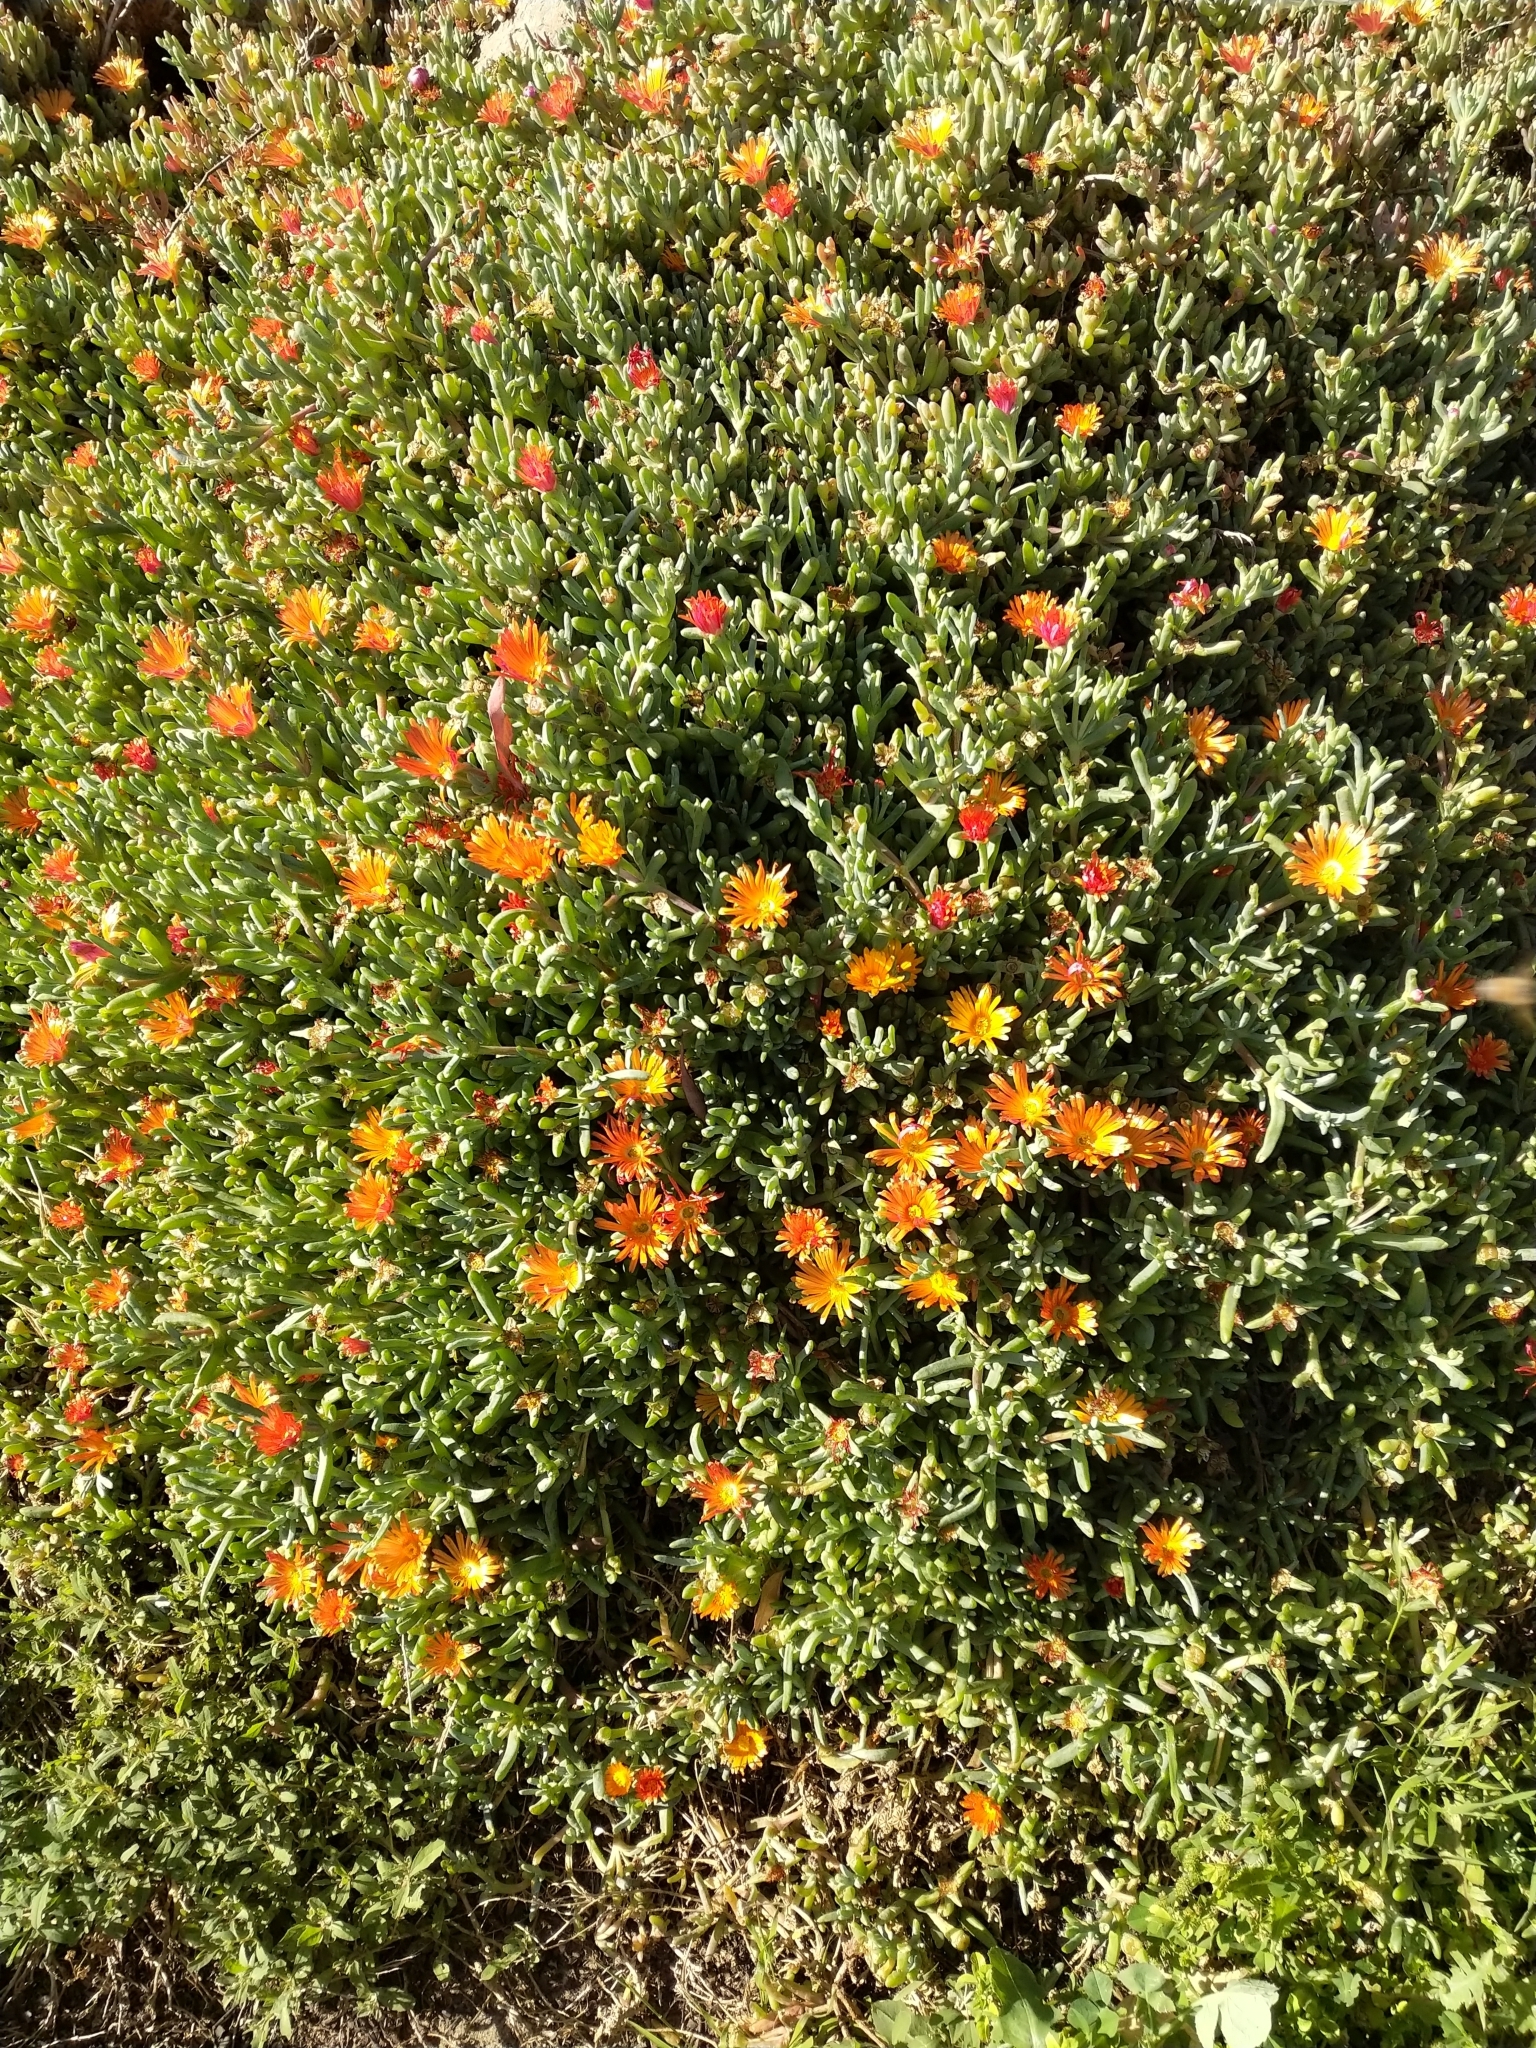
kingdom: Plantae
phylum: Tracheophyta
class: Magnoliopsida
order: Caryophyllales
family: Aizoaceae
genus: Malephora
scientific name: Malephora crocea
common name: Coppery mesemb
